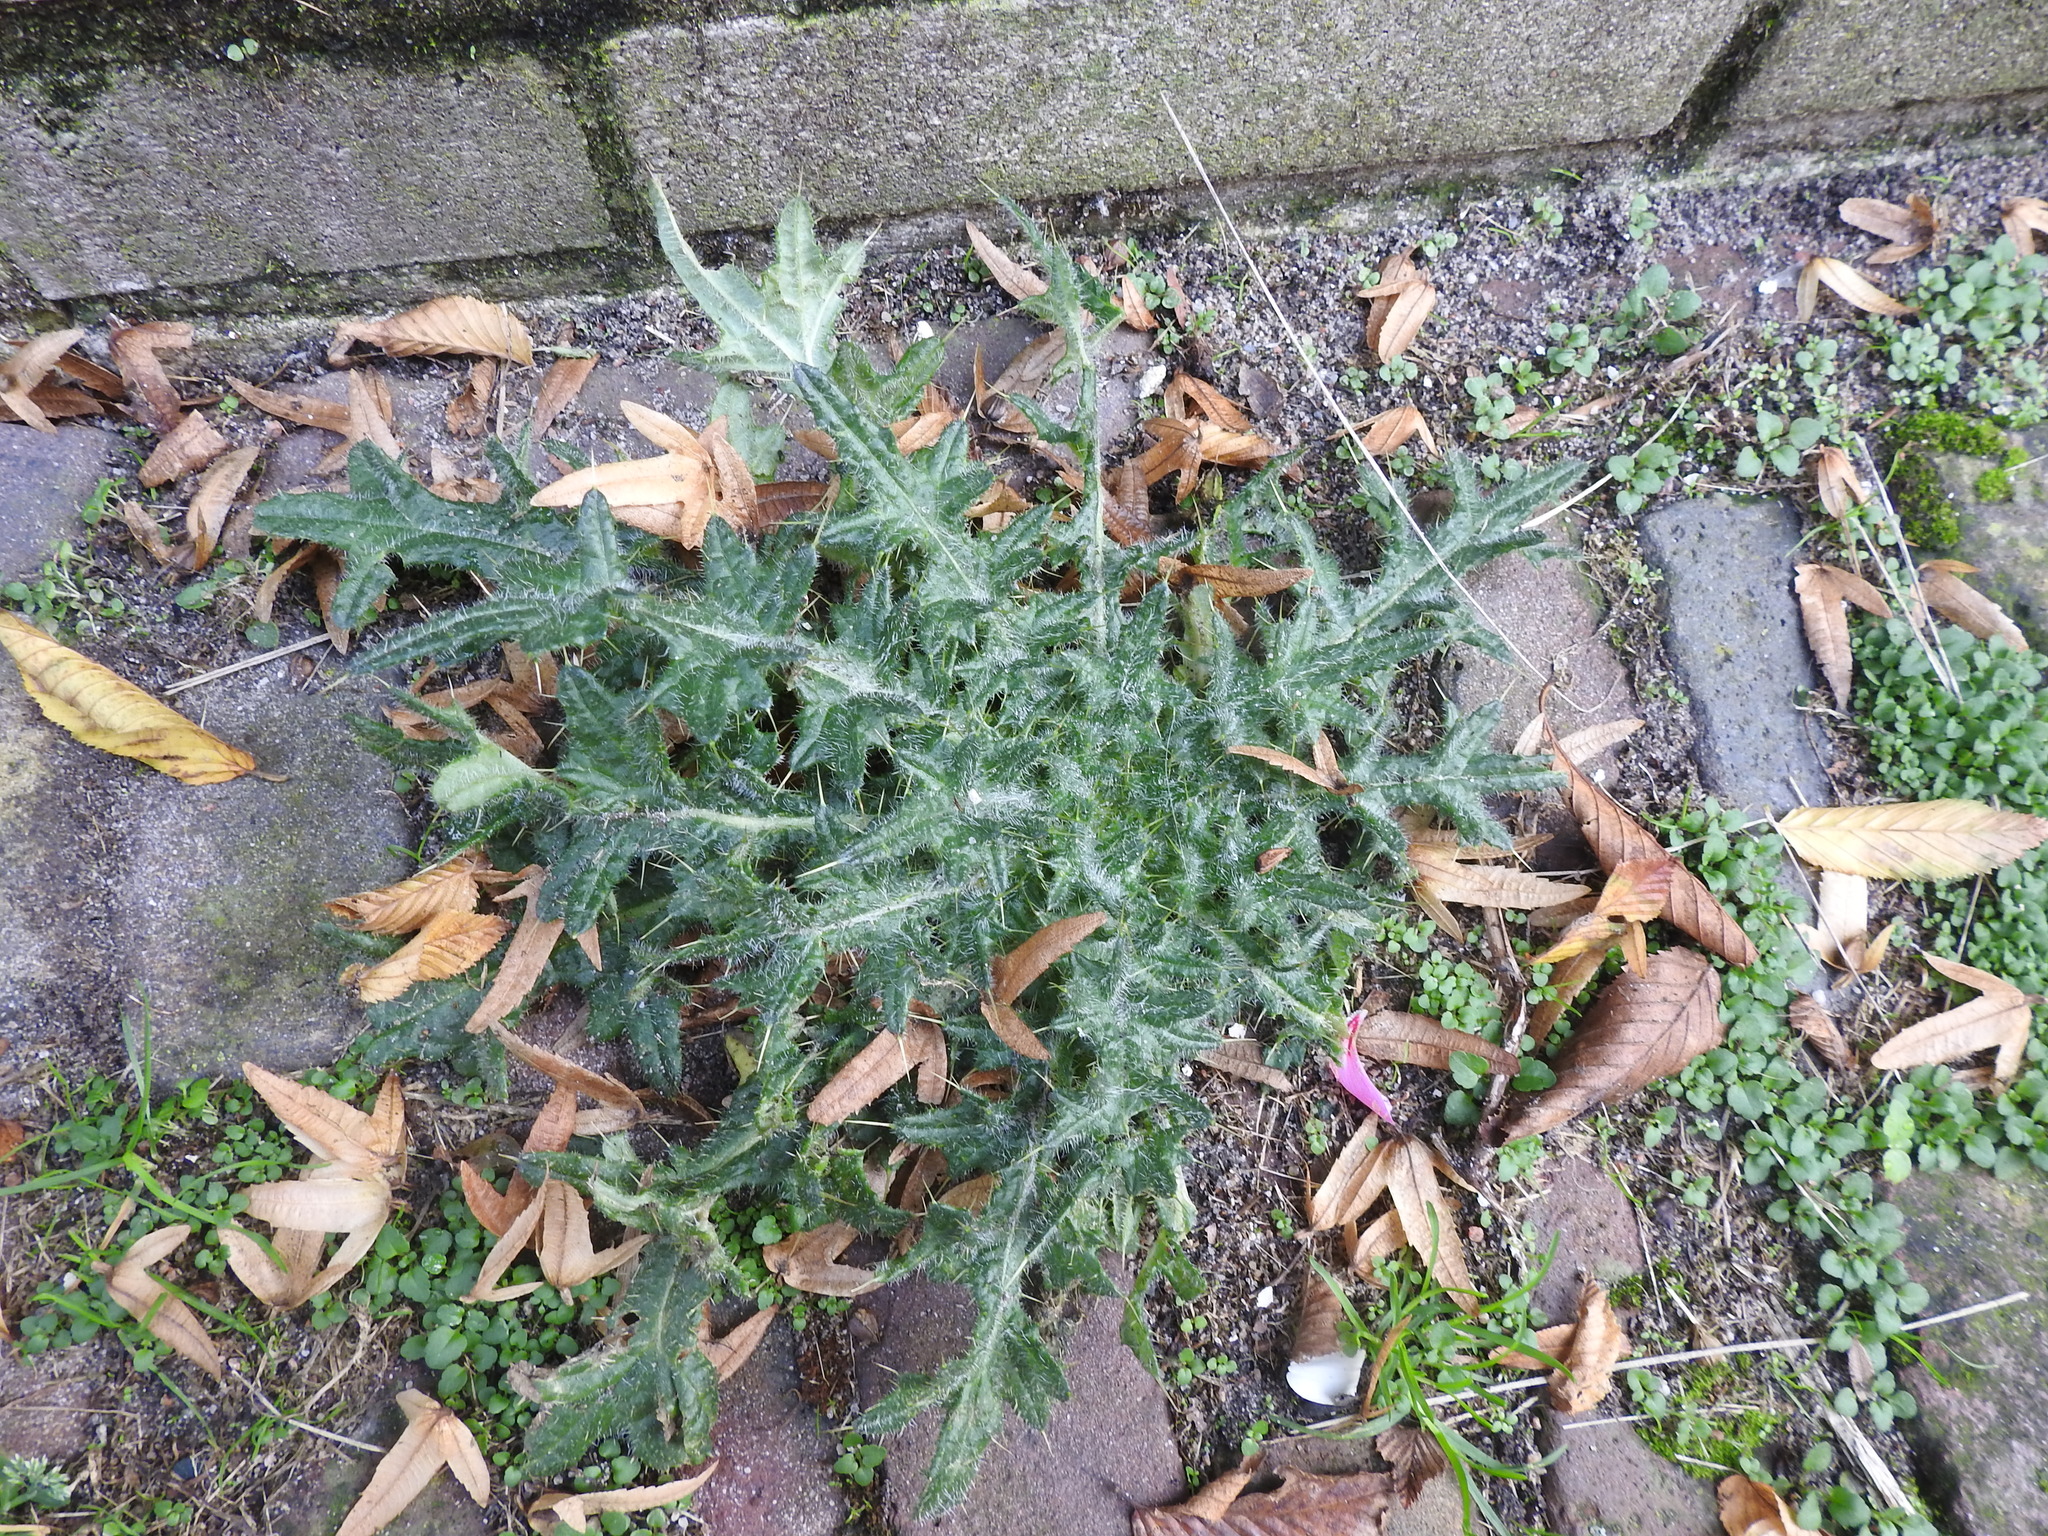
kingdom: Plantae
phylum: Tracheophyta
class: Magnoliopsida
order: Asterales
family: Asteraceae
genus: Cirsium
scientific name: Cirsium vulgare
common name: Bull thistle
